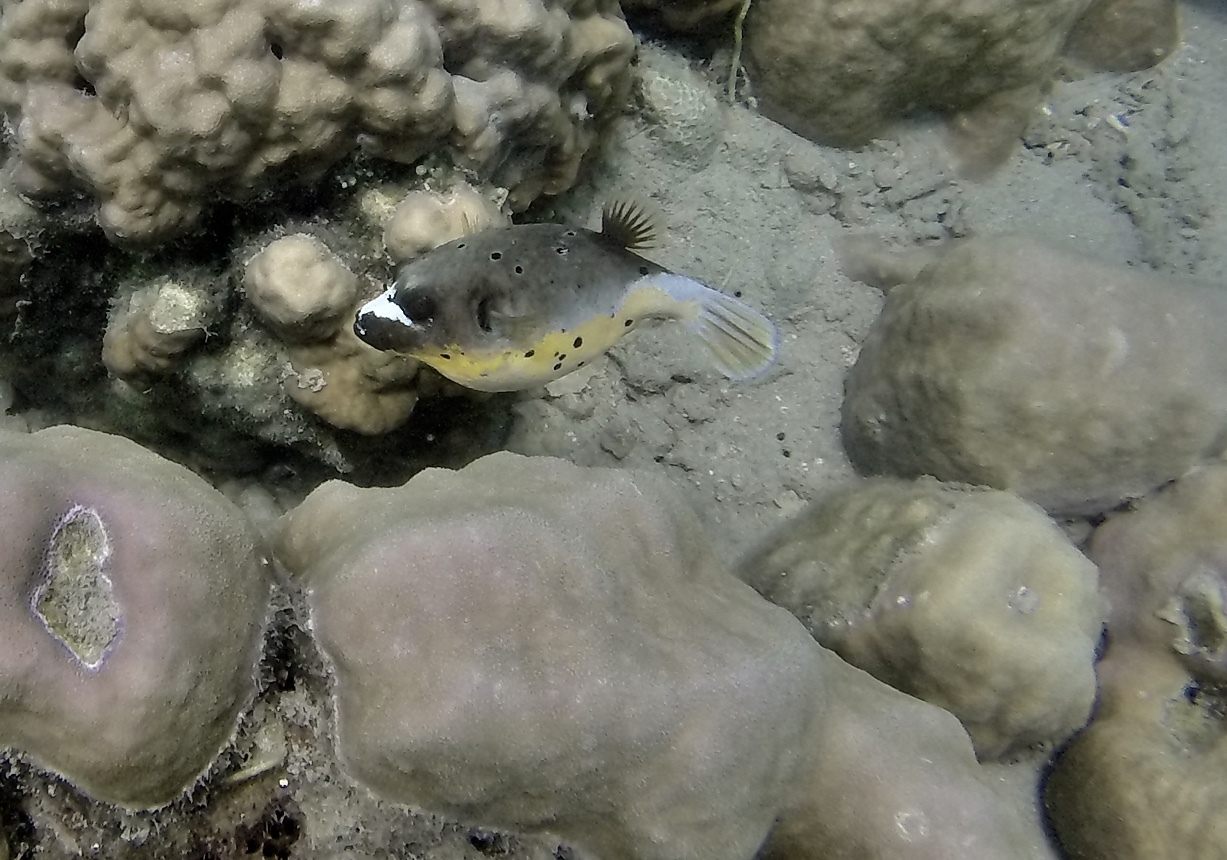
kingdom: Animalia
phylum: Chordata
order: Tetraodontiformes
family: Tetraodontidae
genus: Arothron
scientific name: Arothron nigropunctatus
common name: Black spotted blow fish
